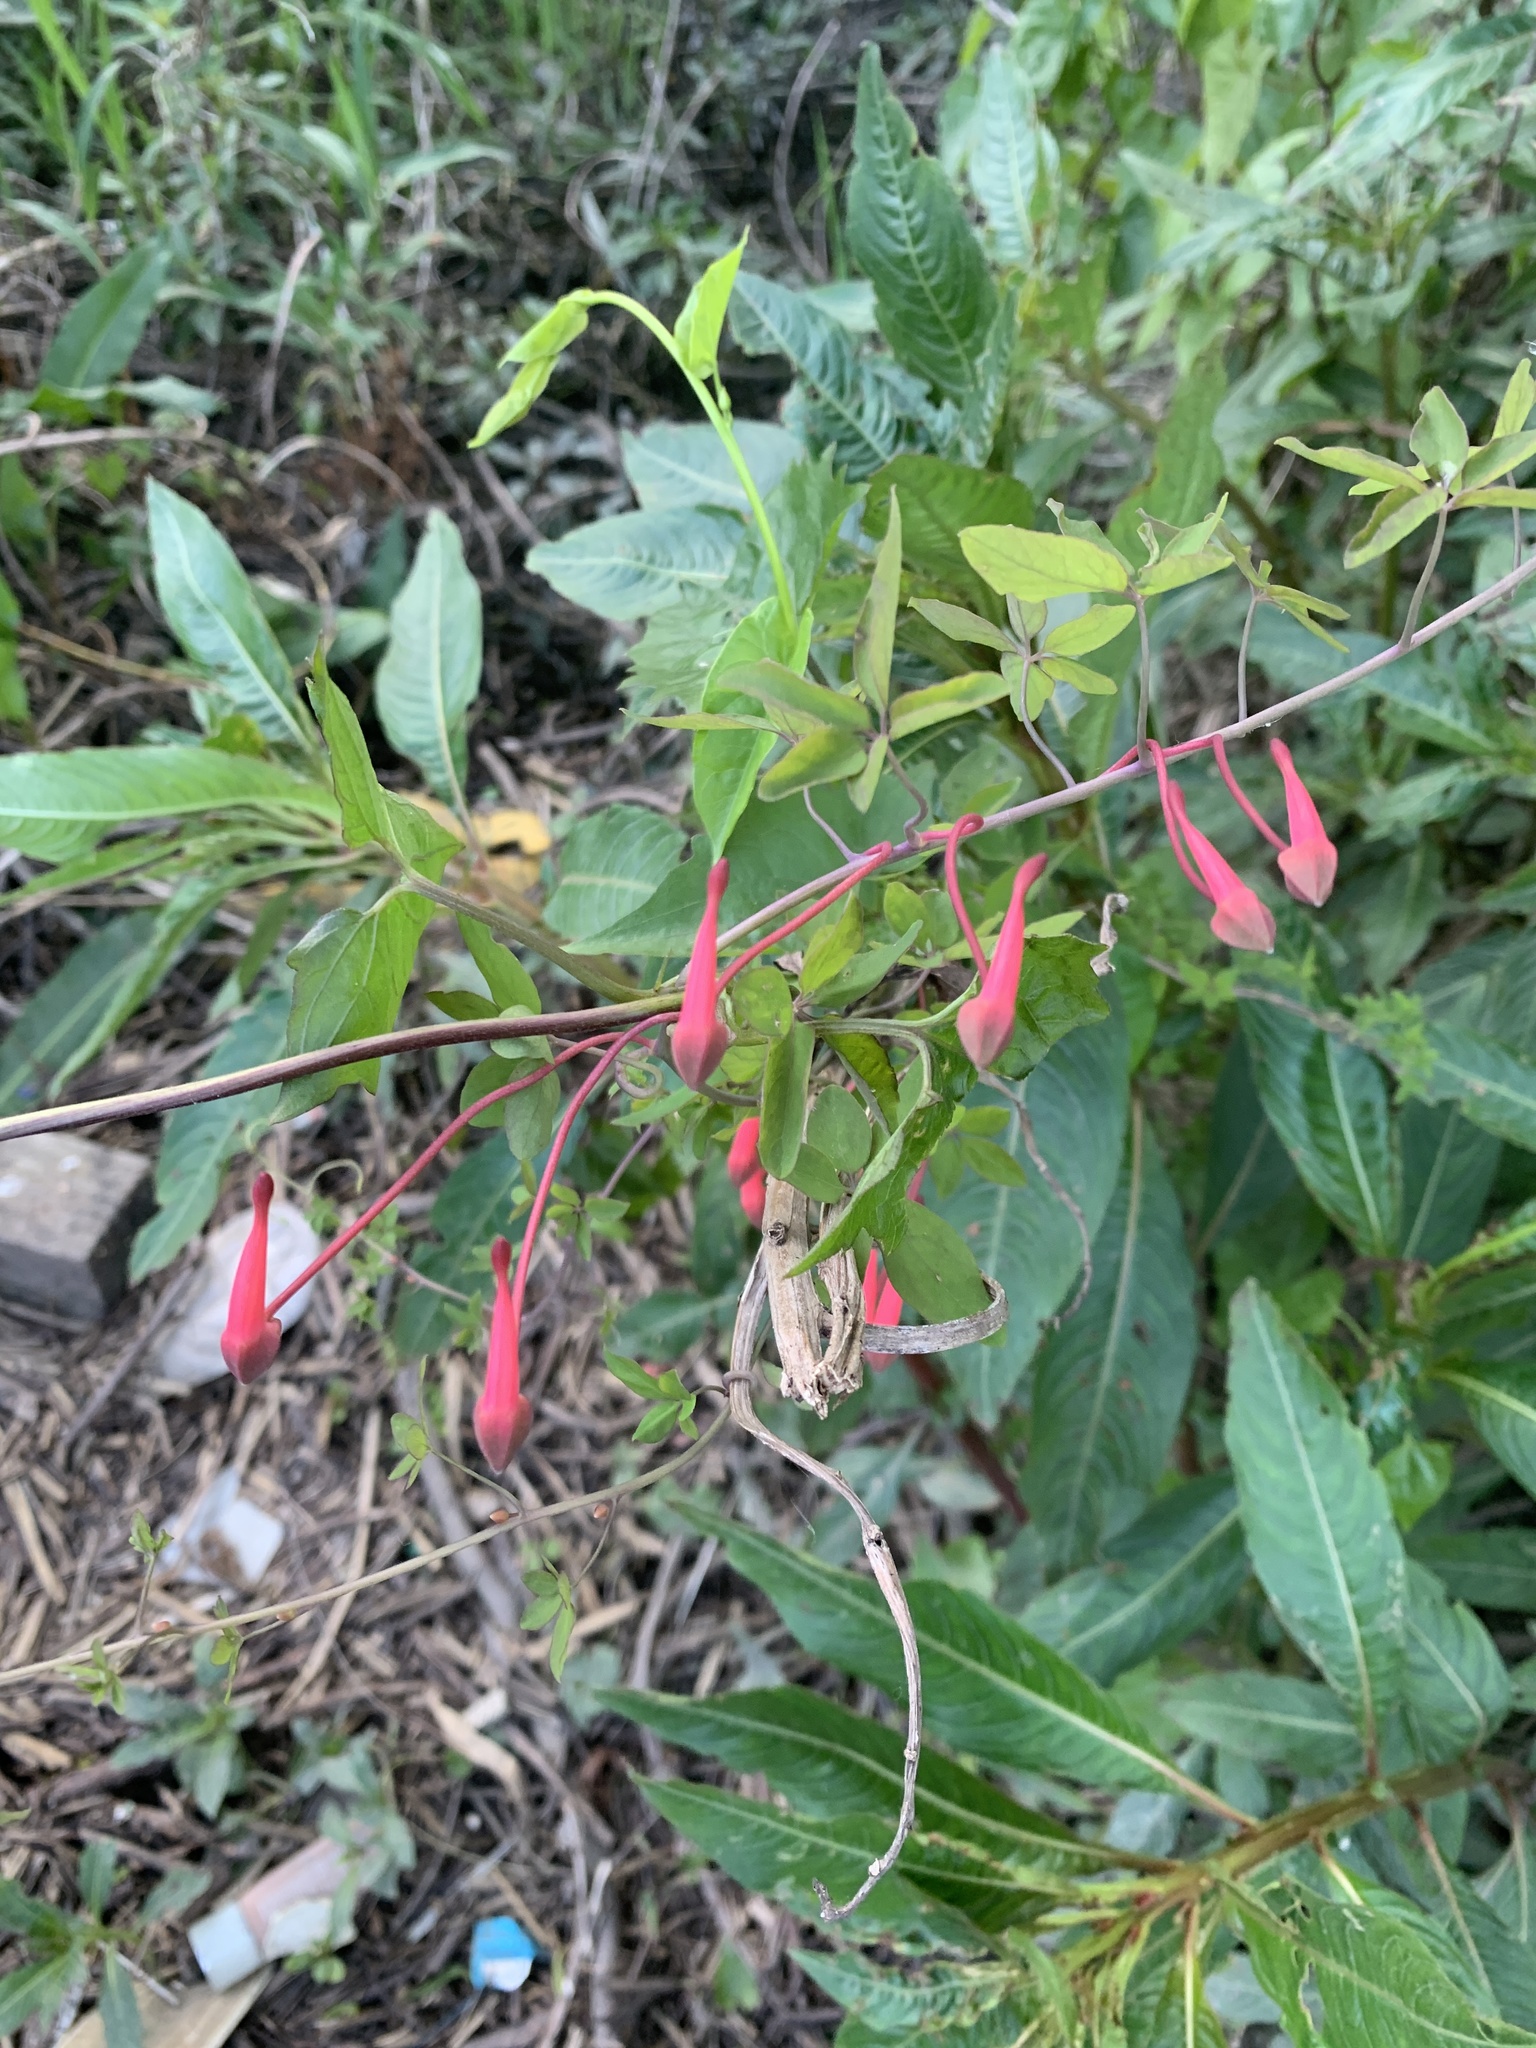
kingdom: Plantae
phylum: Tracheophyta
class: Magnoliopsida
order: Brassicales
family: Tropaeolaceae
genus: Tropaeolum
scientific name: Tropaeolum pentaphyllum
